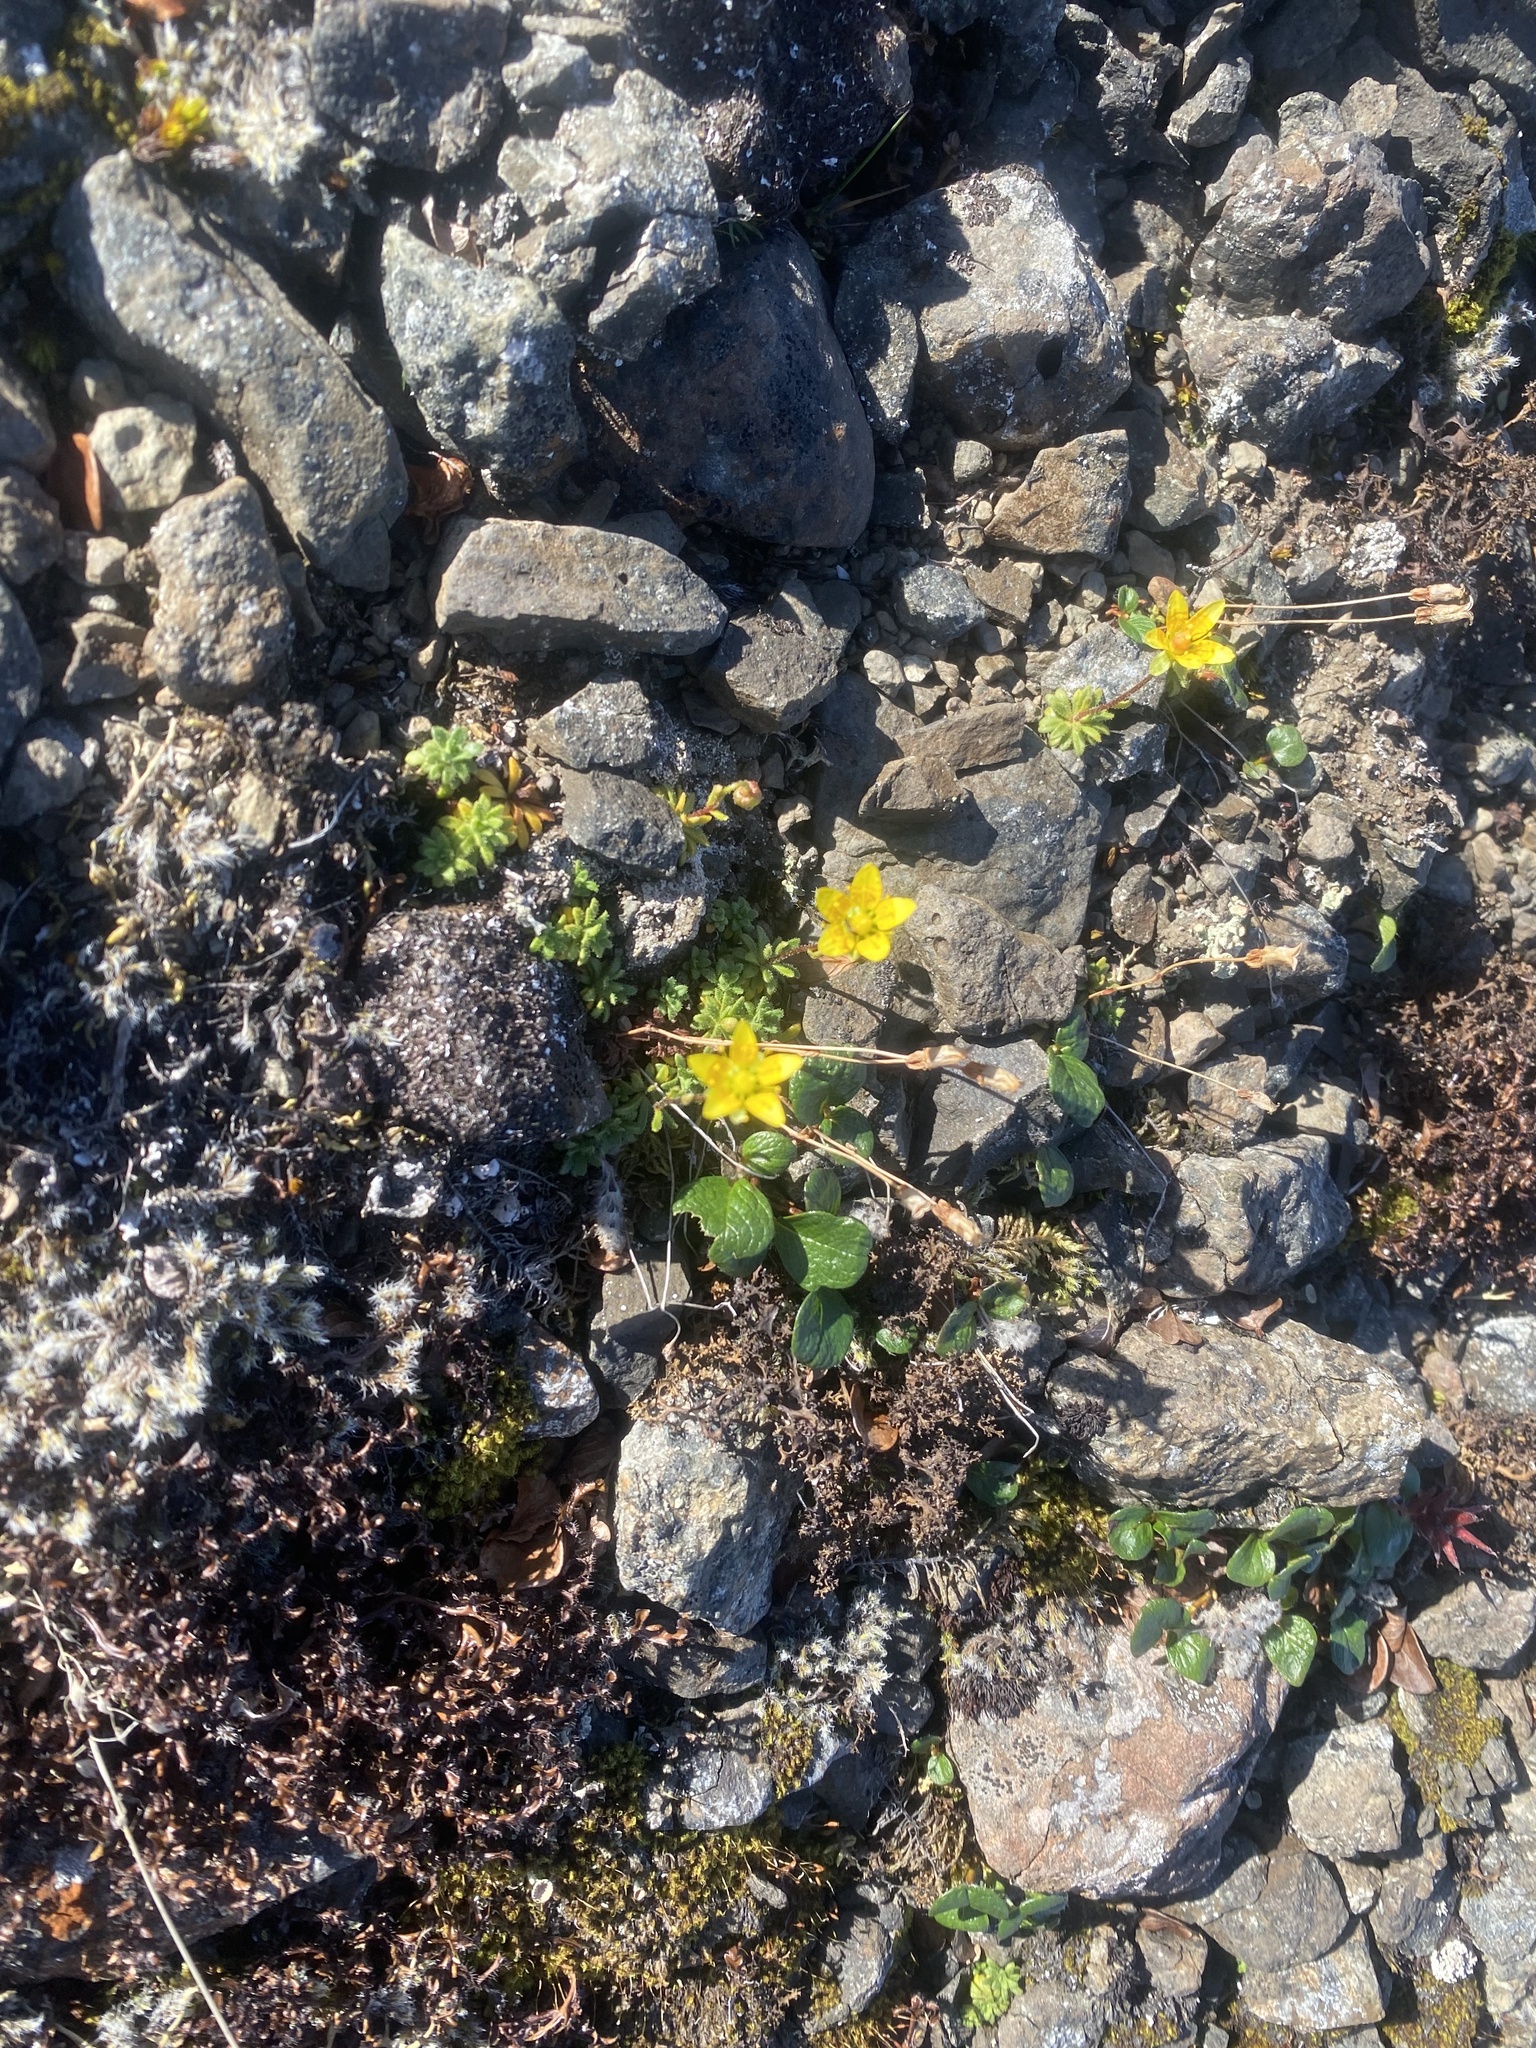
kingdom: Plantae
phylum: Tracheophyta
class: Magnoliopsida
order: Saxifragales
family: Saxifragaceae
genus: Saxifraga
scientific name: Saxifraga serpyllifolia
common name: Thyme-leaved saxifrage
